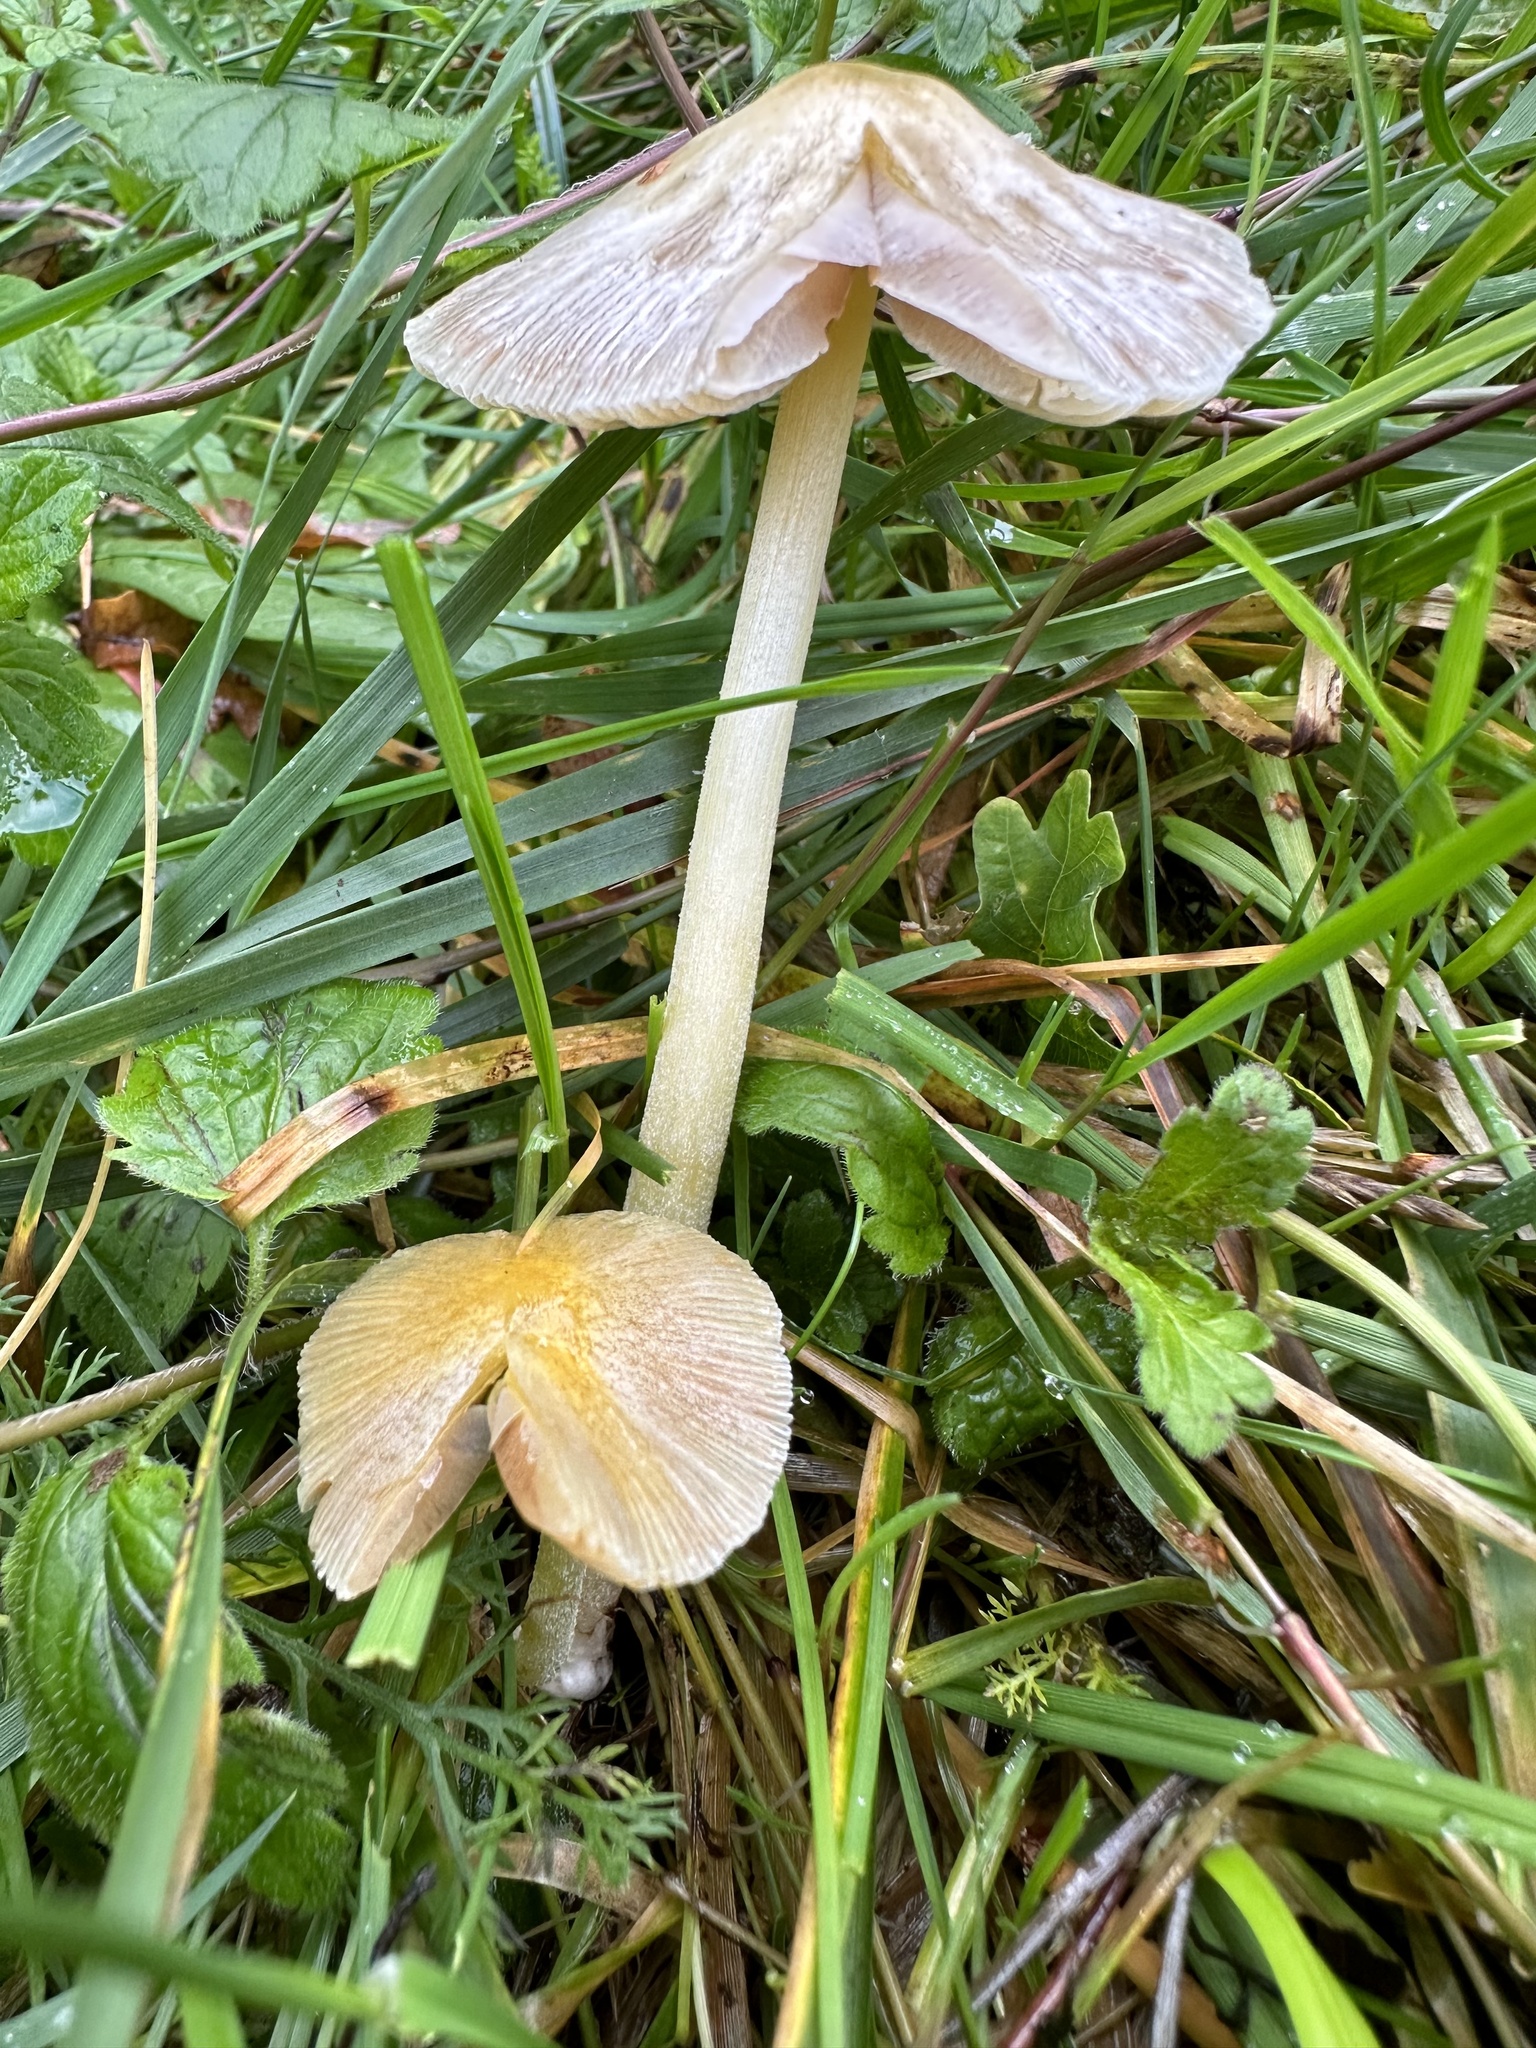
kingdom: Fungi
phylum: Basidiomycota
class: Agaricomycetes
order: Agaricales
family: Bolbitiaceae
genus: Bolbitius
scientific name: Bolbitius titubans
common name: Yellow fieldcap
